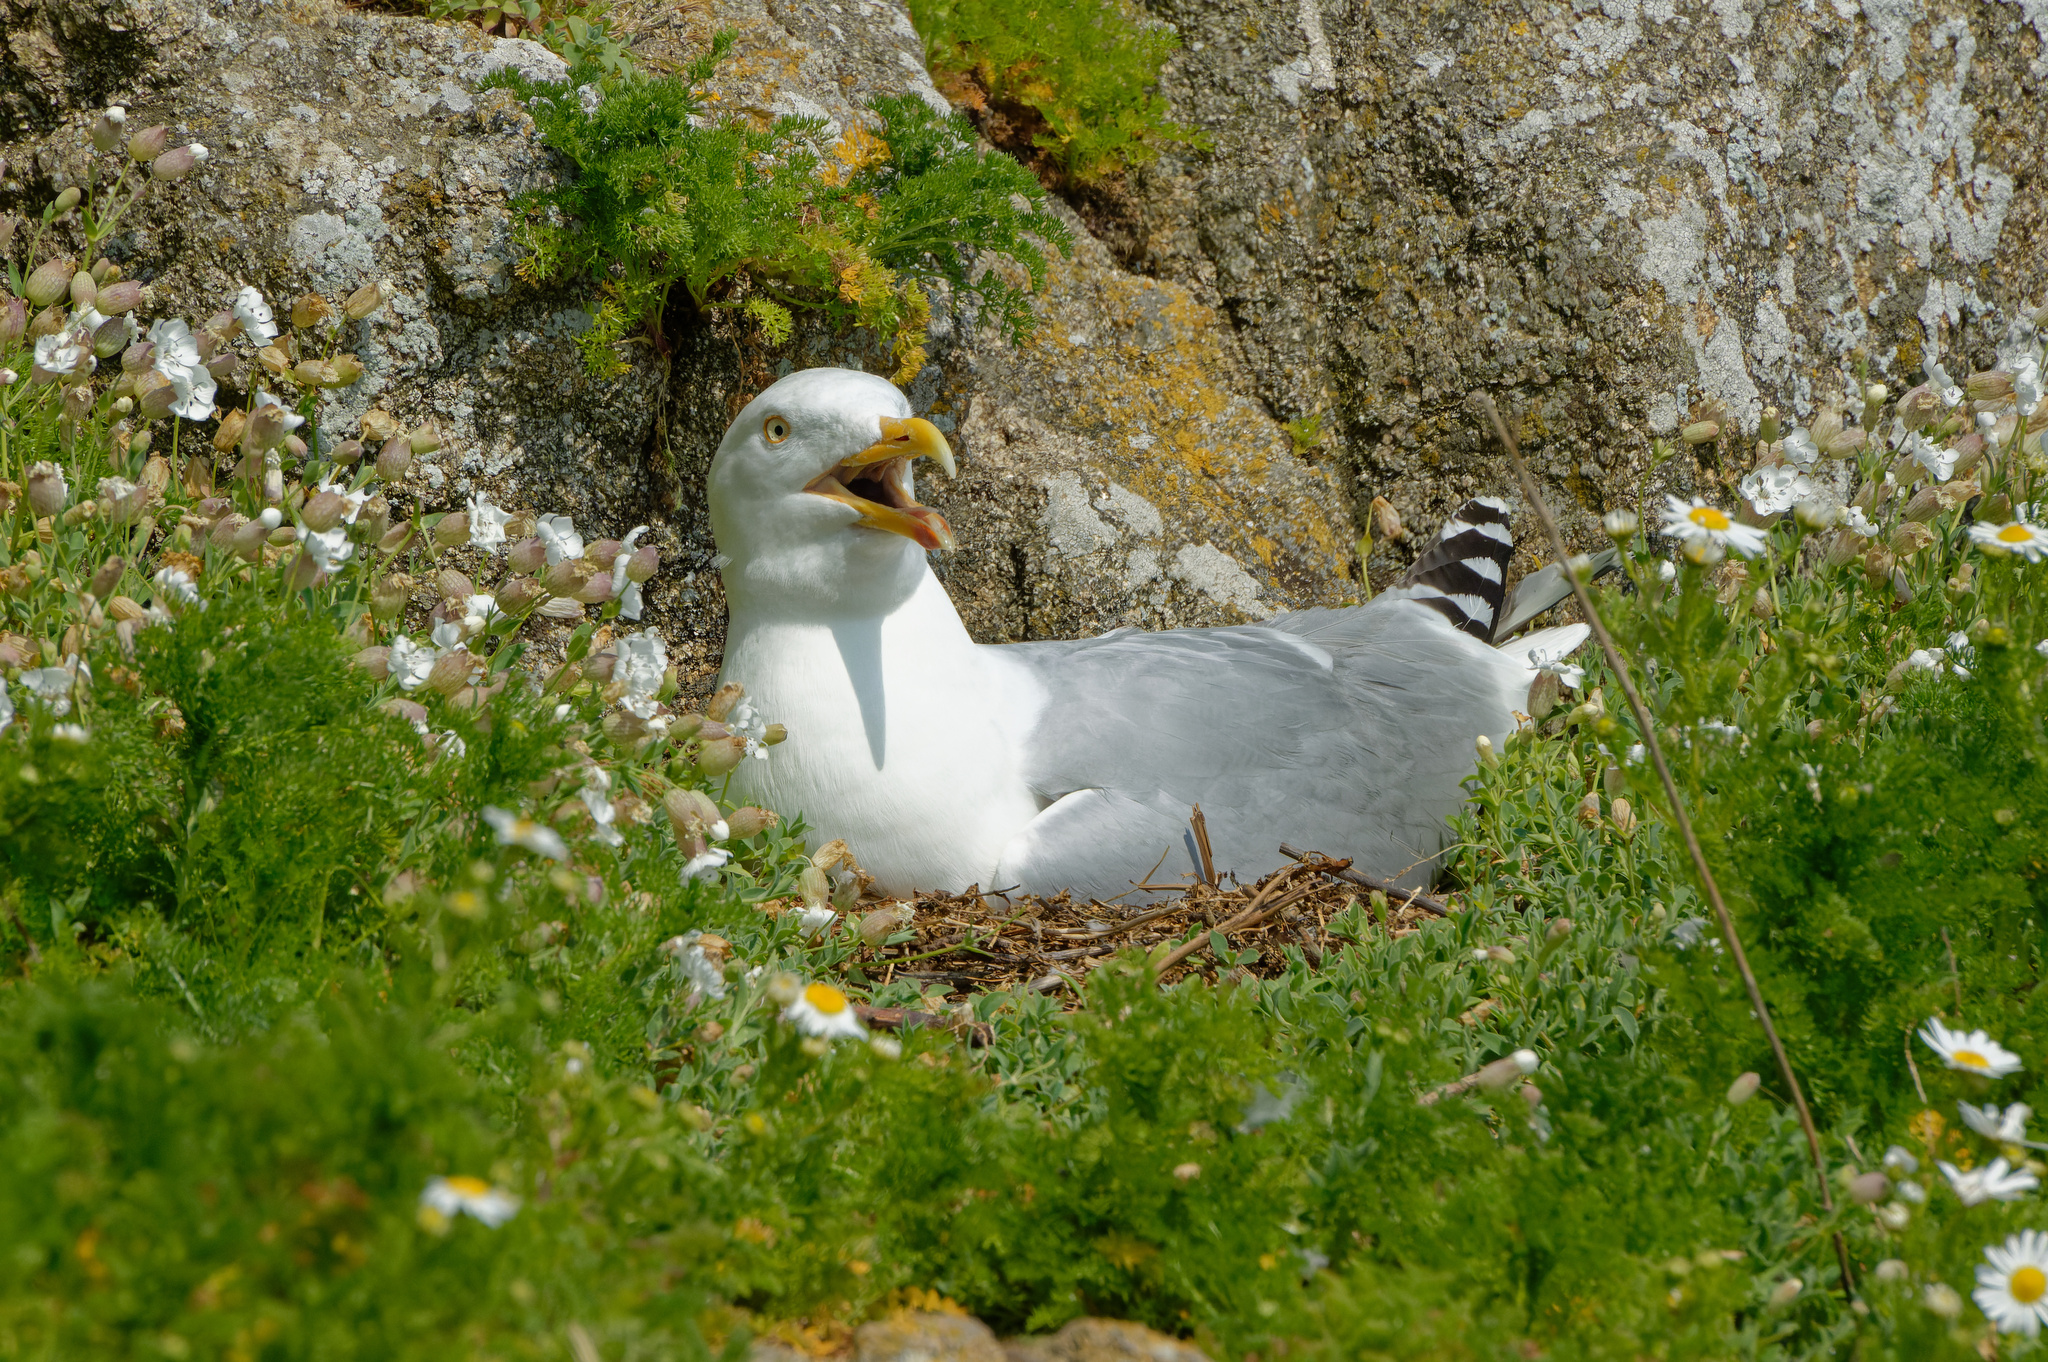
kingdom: Animalia
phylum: Chordata
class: Aves
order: Charadriiformes
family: Laridae
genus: Larus
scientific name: Larus argentatus
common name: Herring gull
